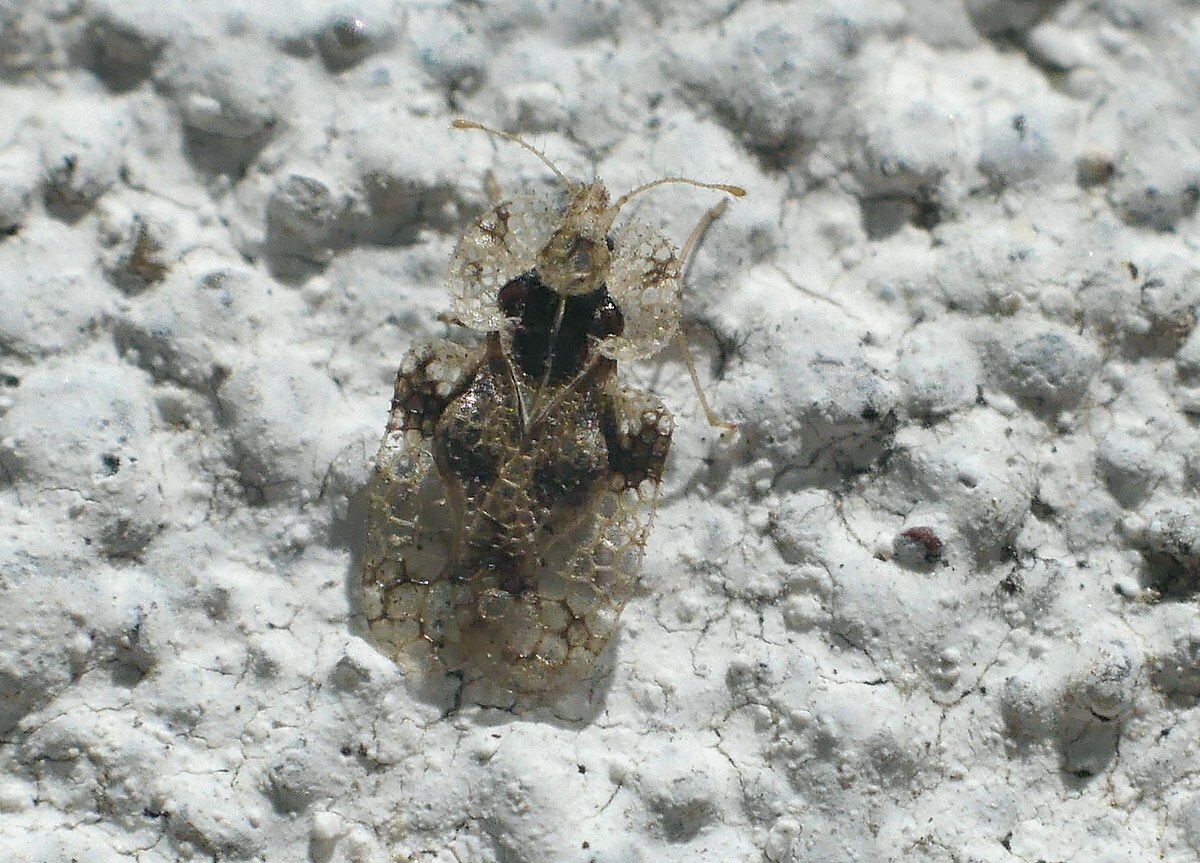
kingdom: Animalia
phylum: Arthropoda
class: Insecta
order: Hemiptera
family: Tingidae
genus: Corythucha
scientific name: Corythucha arcuata
